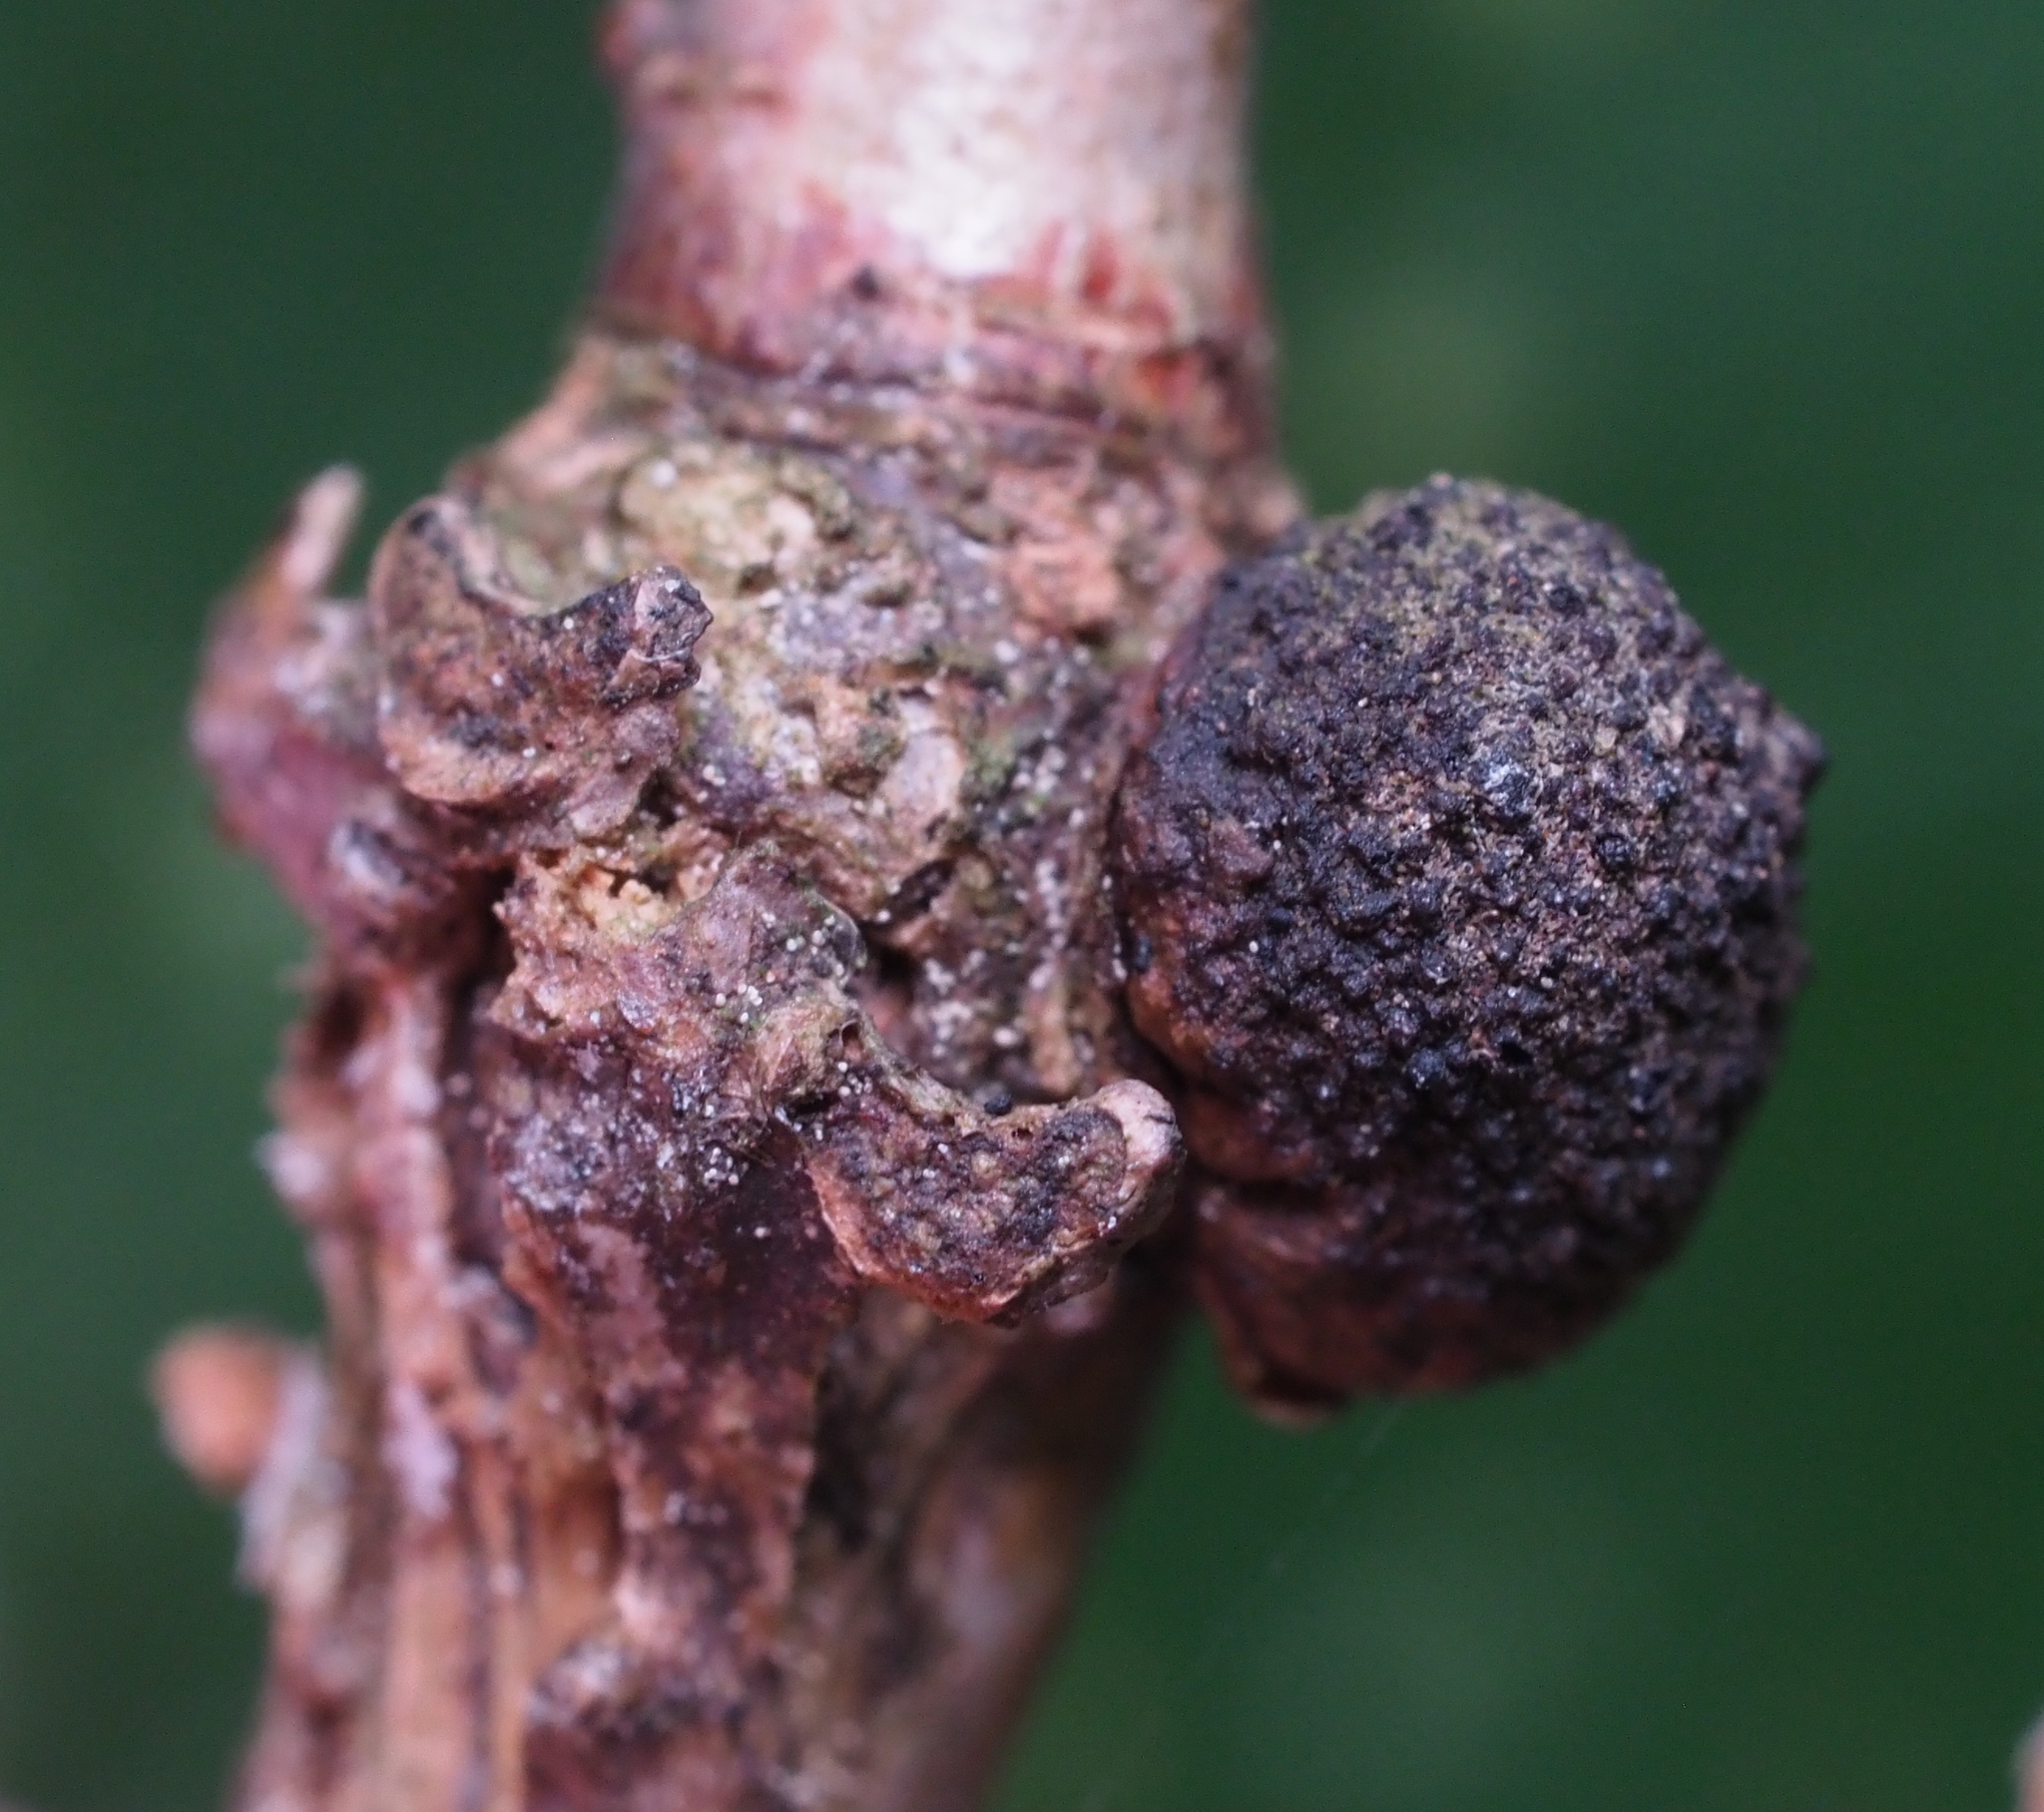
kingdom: Animalia
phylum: Arthropoda
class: Insecta
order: Hymenoptera
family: Cynipidae
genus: Andricus
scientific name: Andricus
